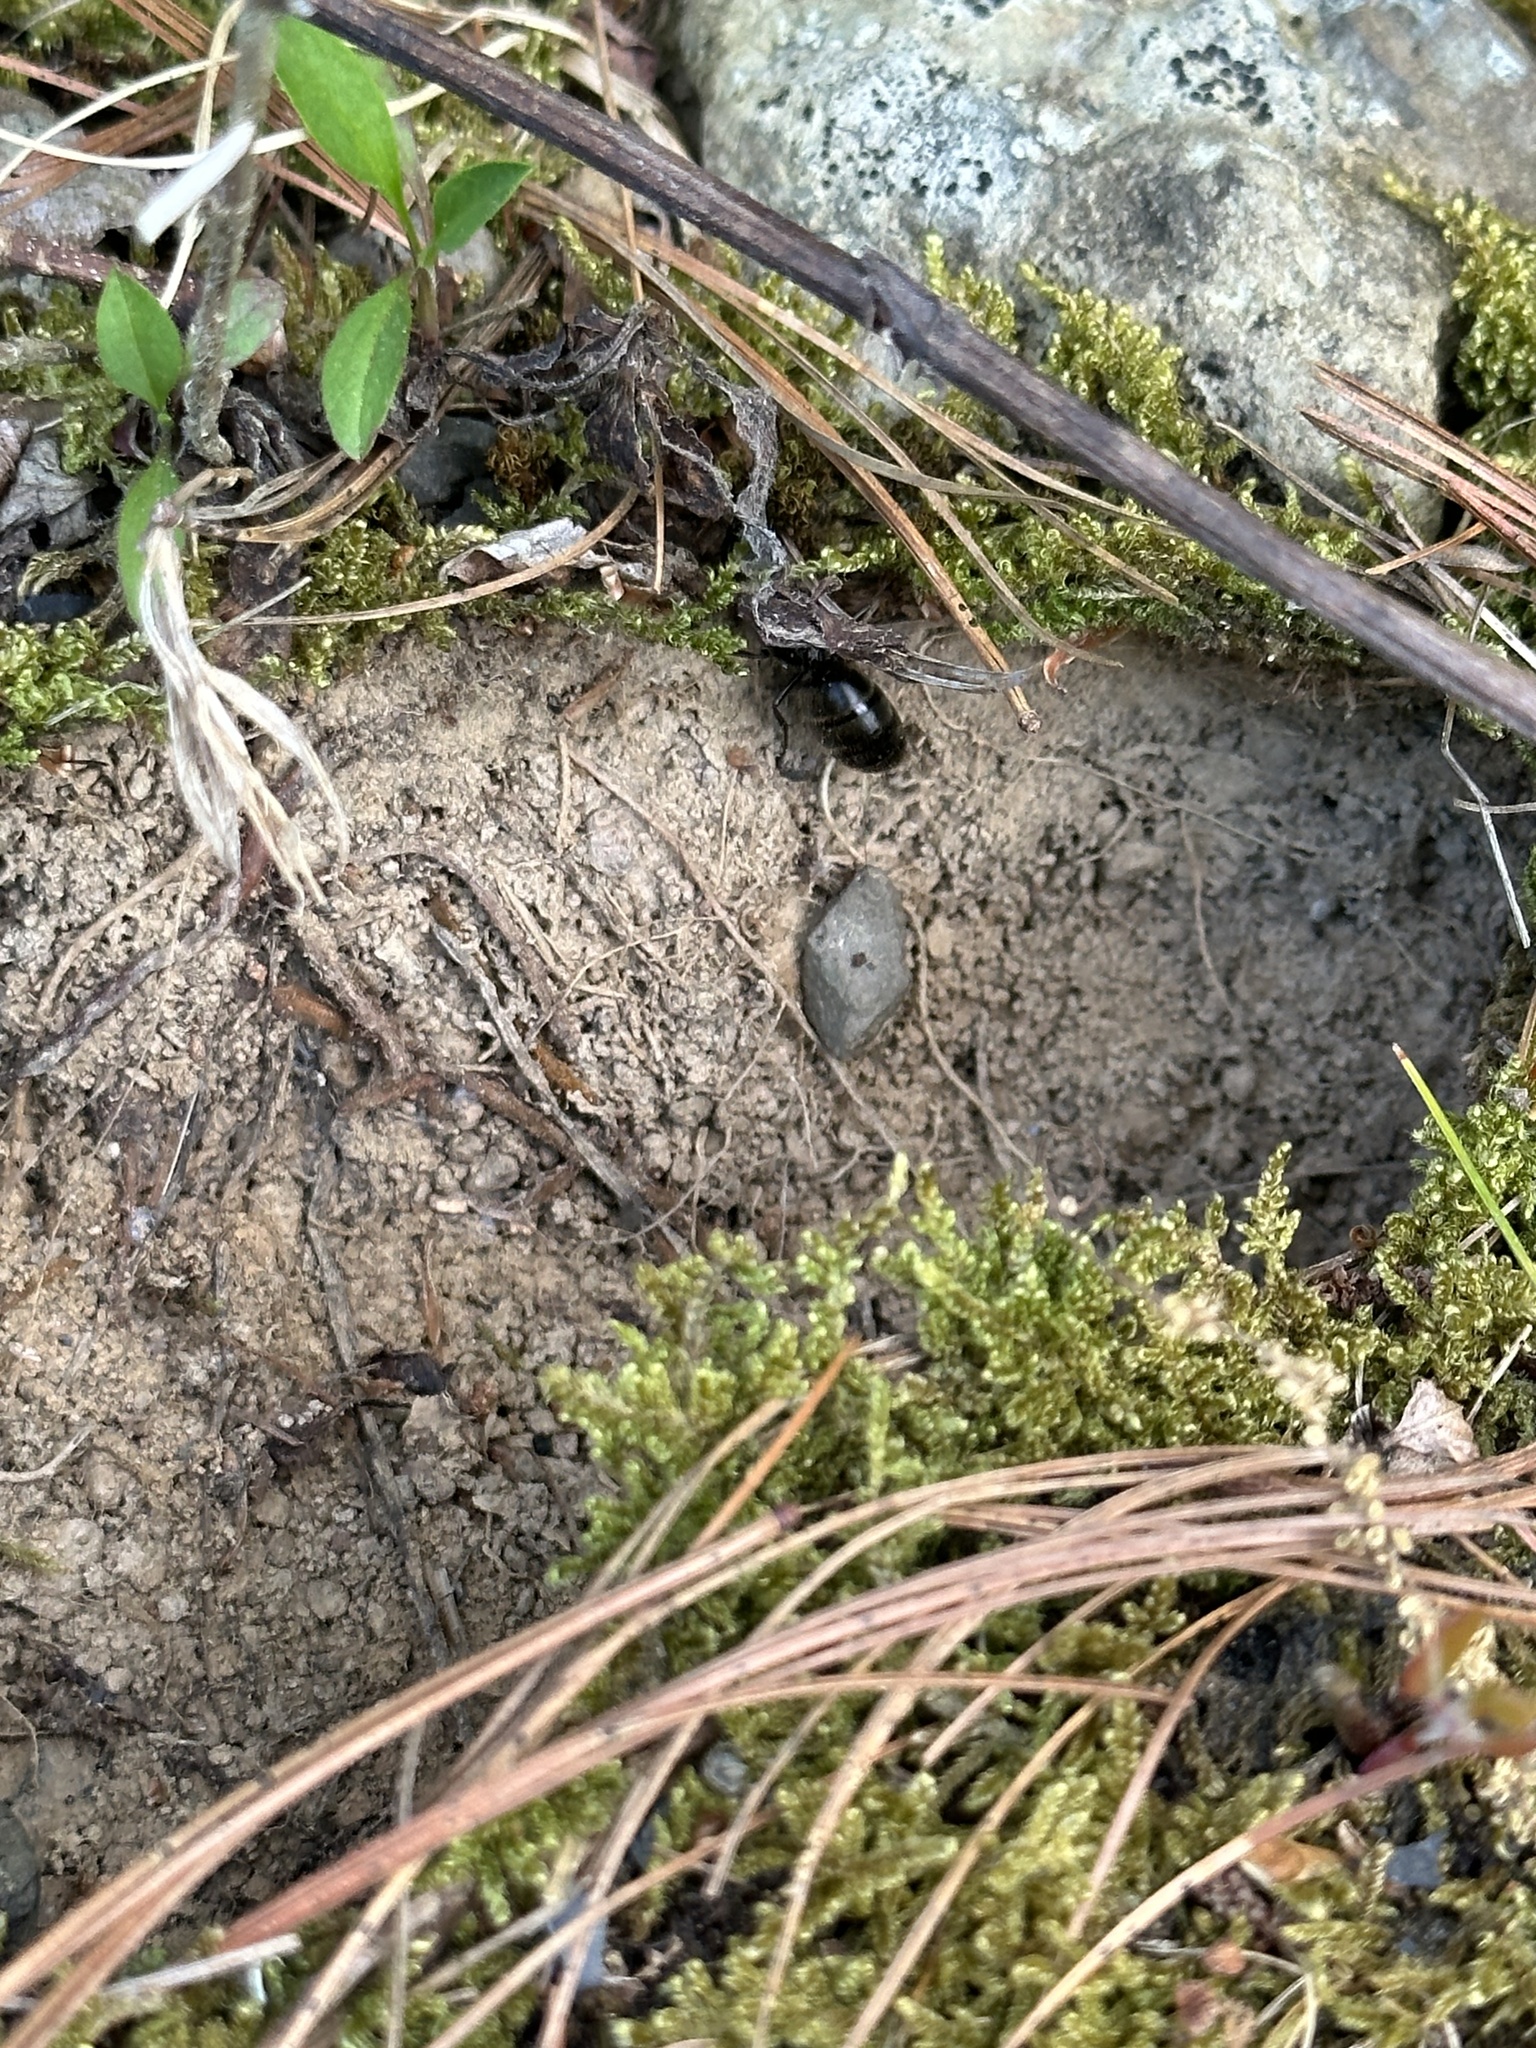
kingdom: Animalia
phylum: Arthropoda
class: Insecta
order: Hymenoptera
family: Formicidae
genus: Camponotus
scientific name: Camponotus pennsylvanicus
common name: Black carpenter ant
